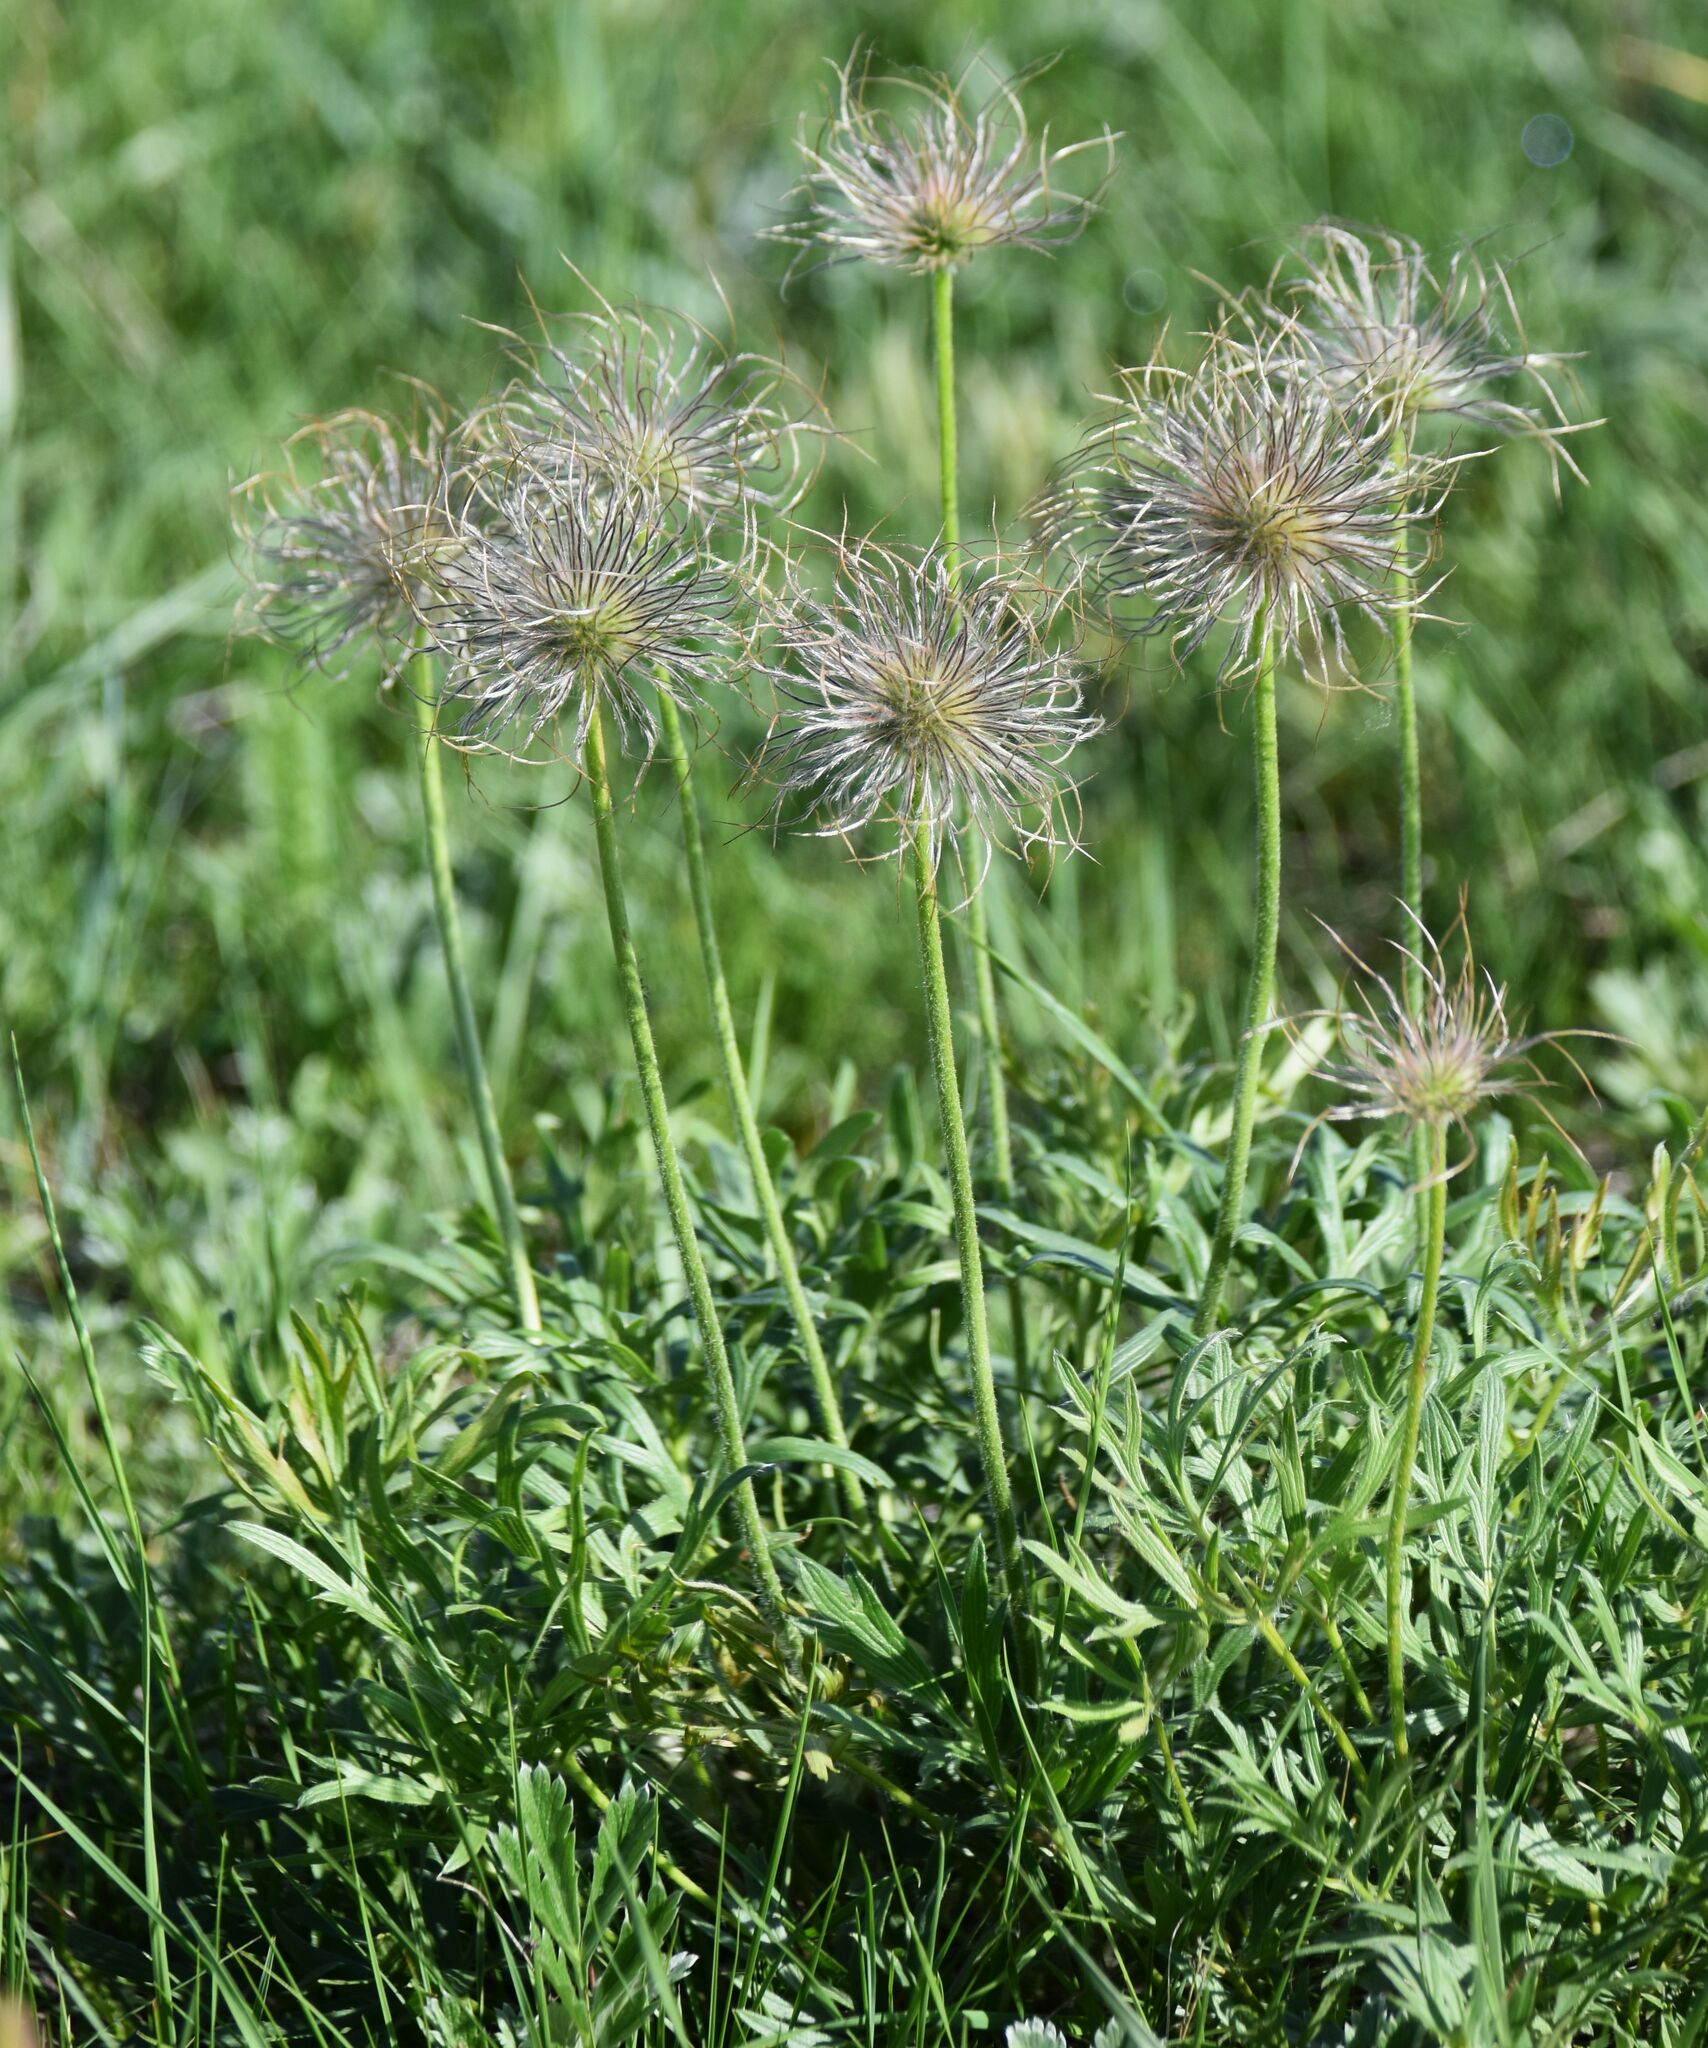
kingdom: Plantae
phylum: Tracheophyta
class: Magnoliopsida
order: Ranunculales
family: Ranunculaceae
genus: Pulsatilla
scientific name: Pulsatilla nuttalliana
